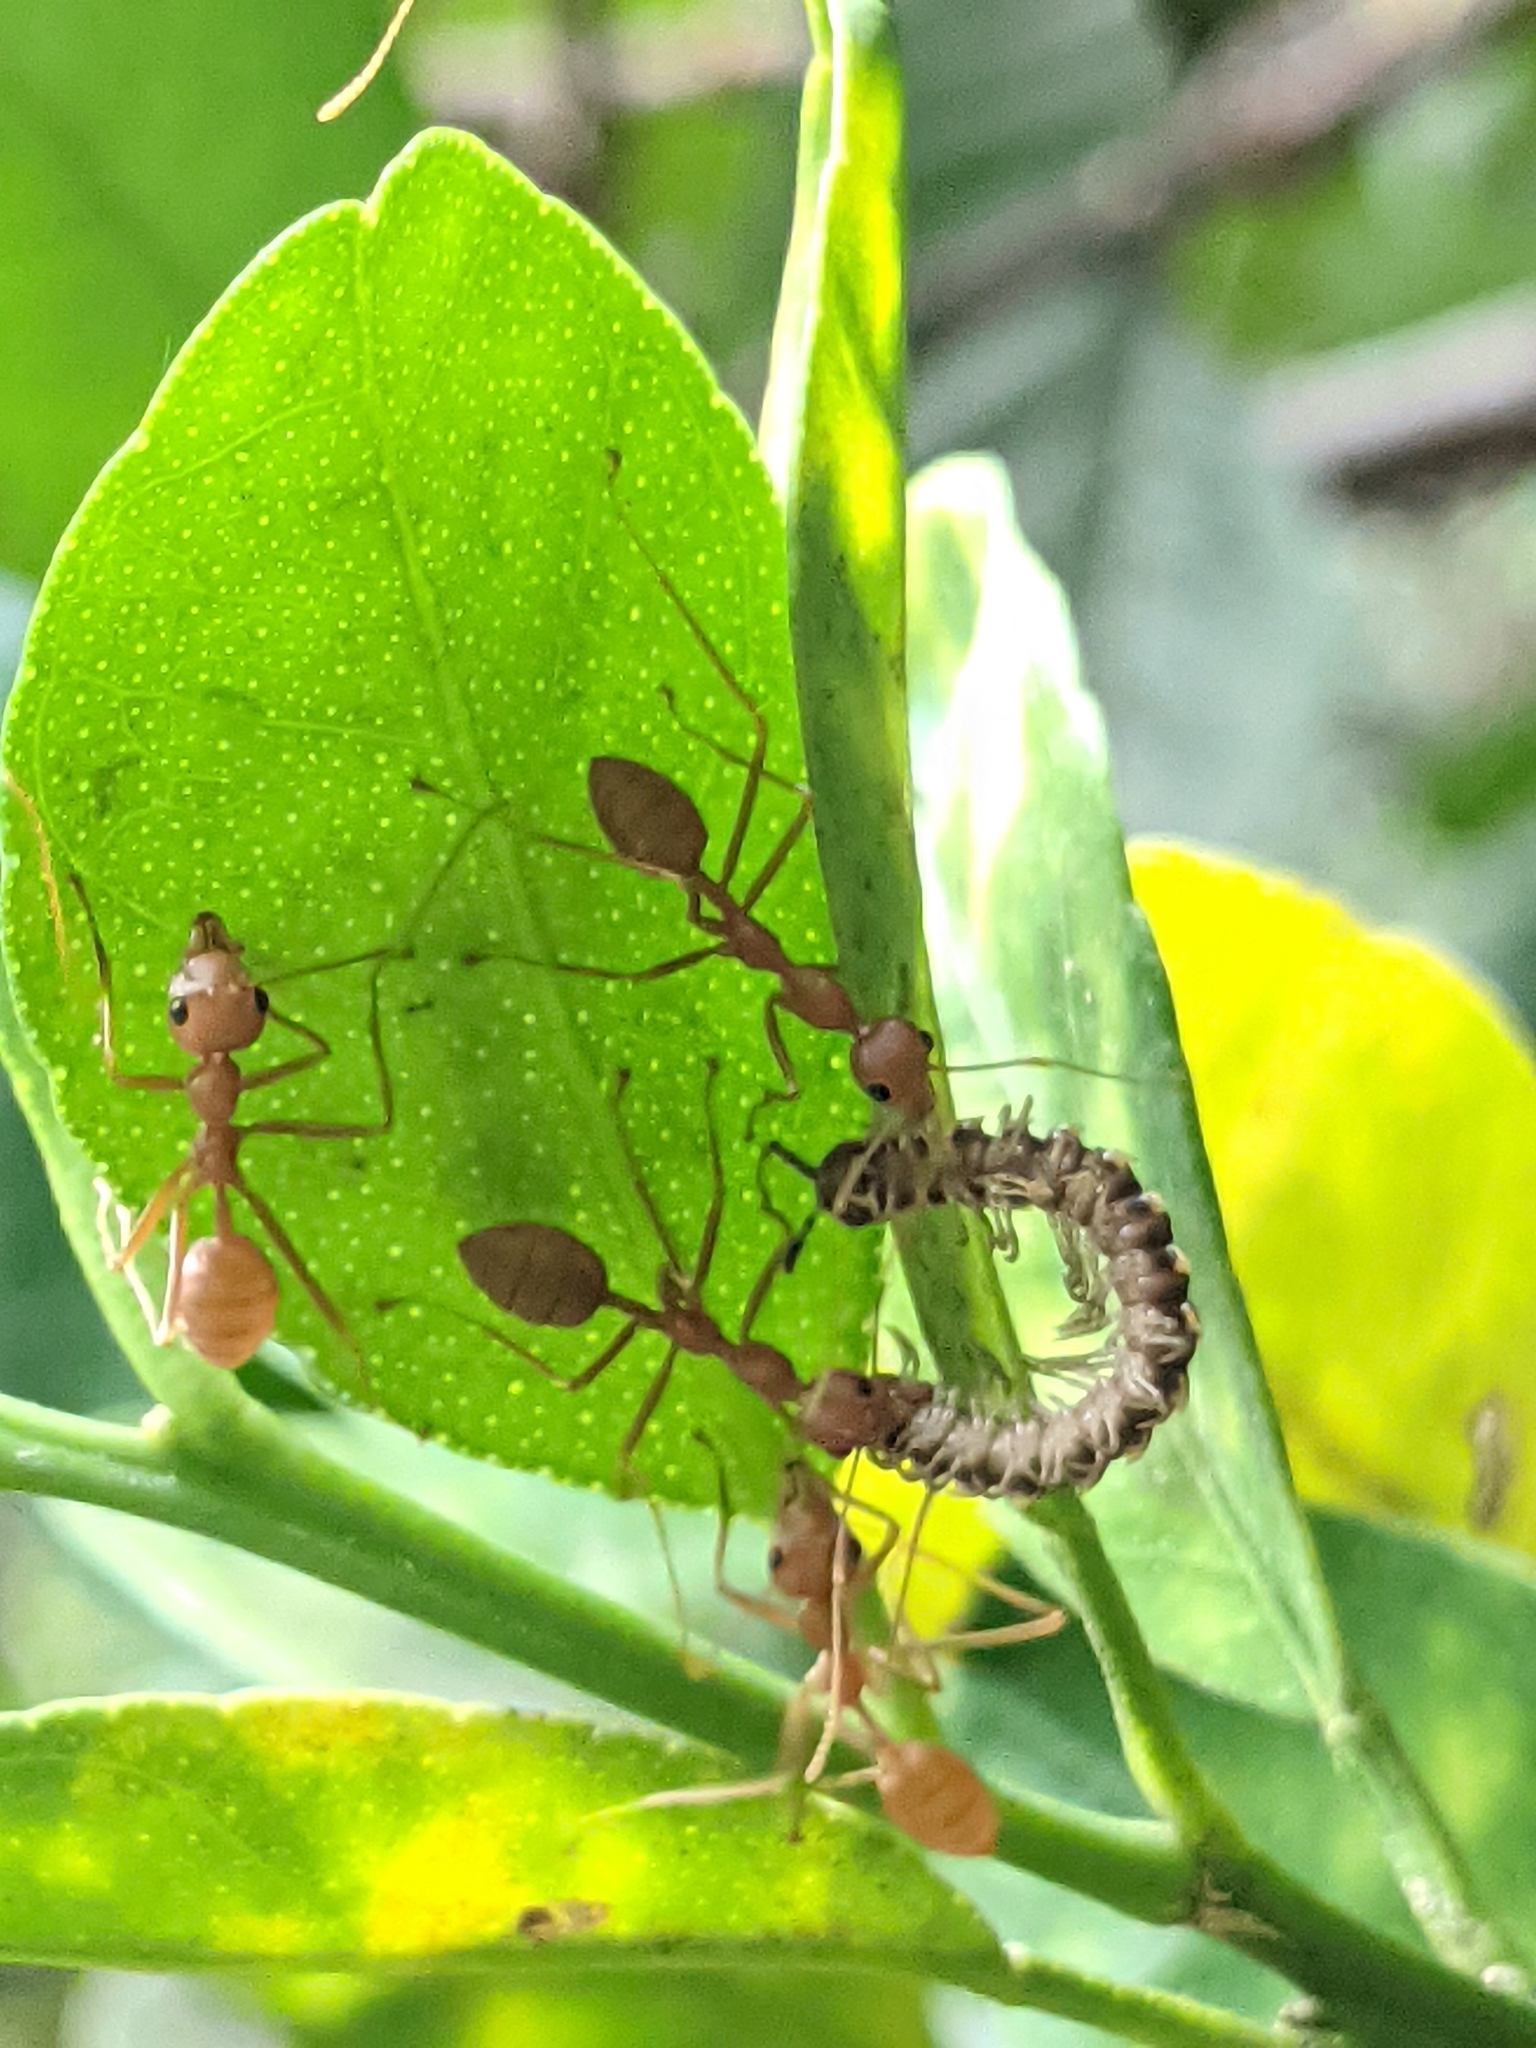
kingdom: Animalia
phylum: Arthropoda
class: Insecta
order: Hymenoptera
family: Formicidae
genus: Oecophylla
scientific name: Oecophylla smaragdina
